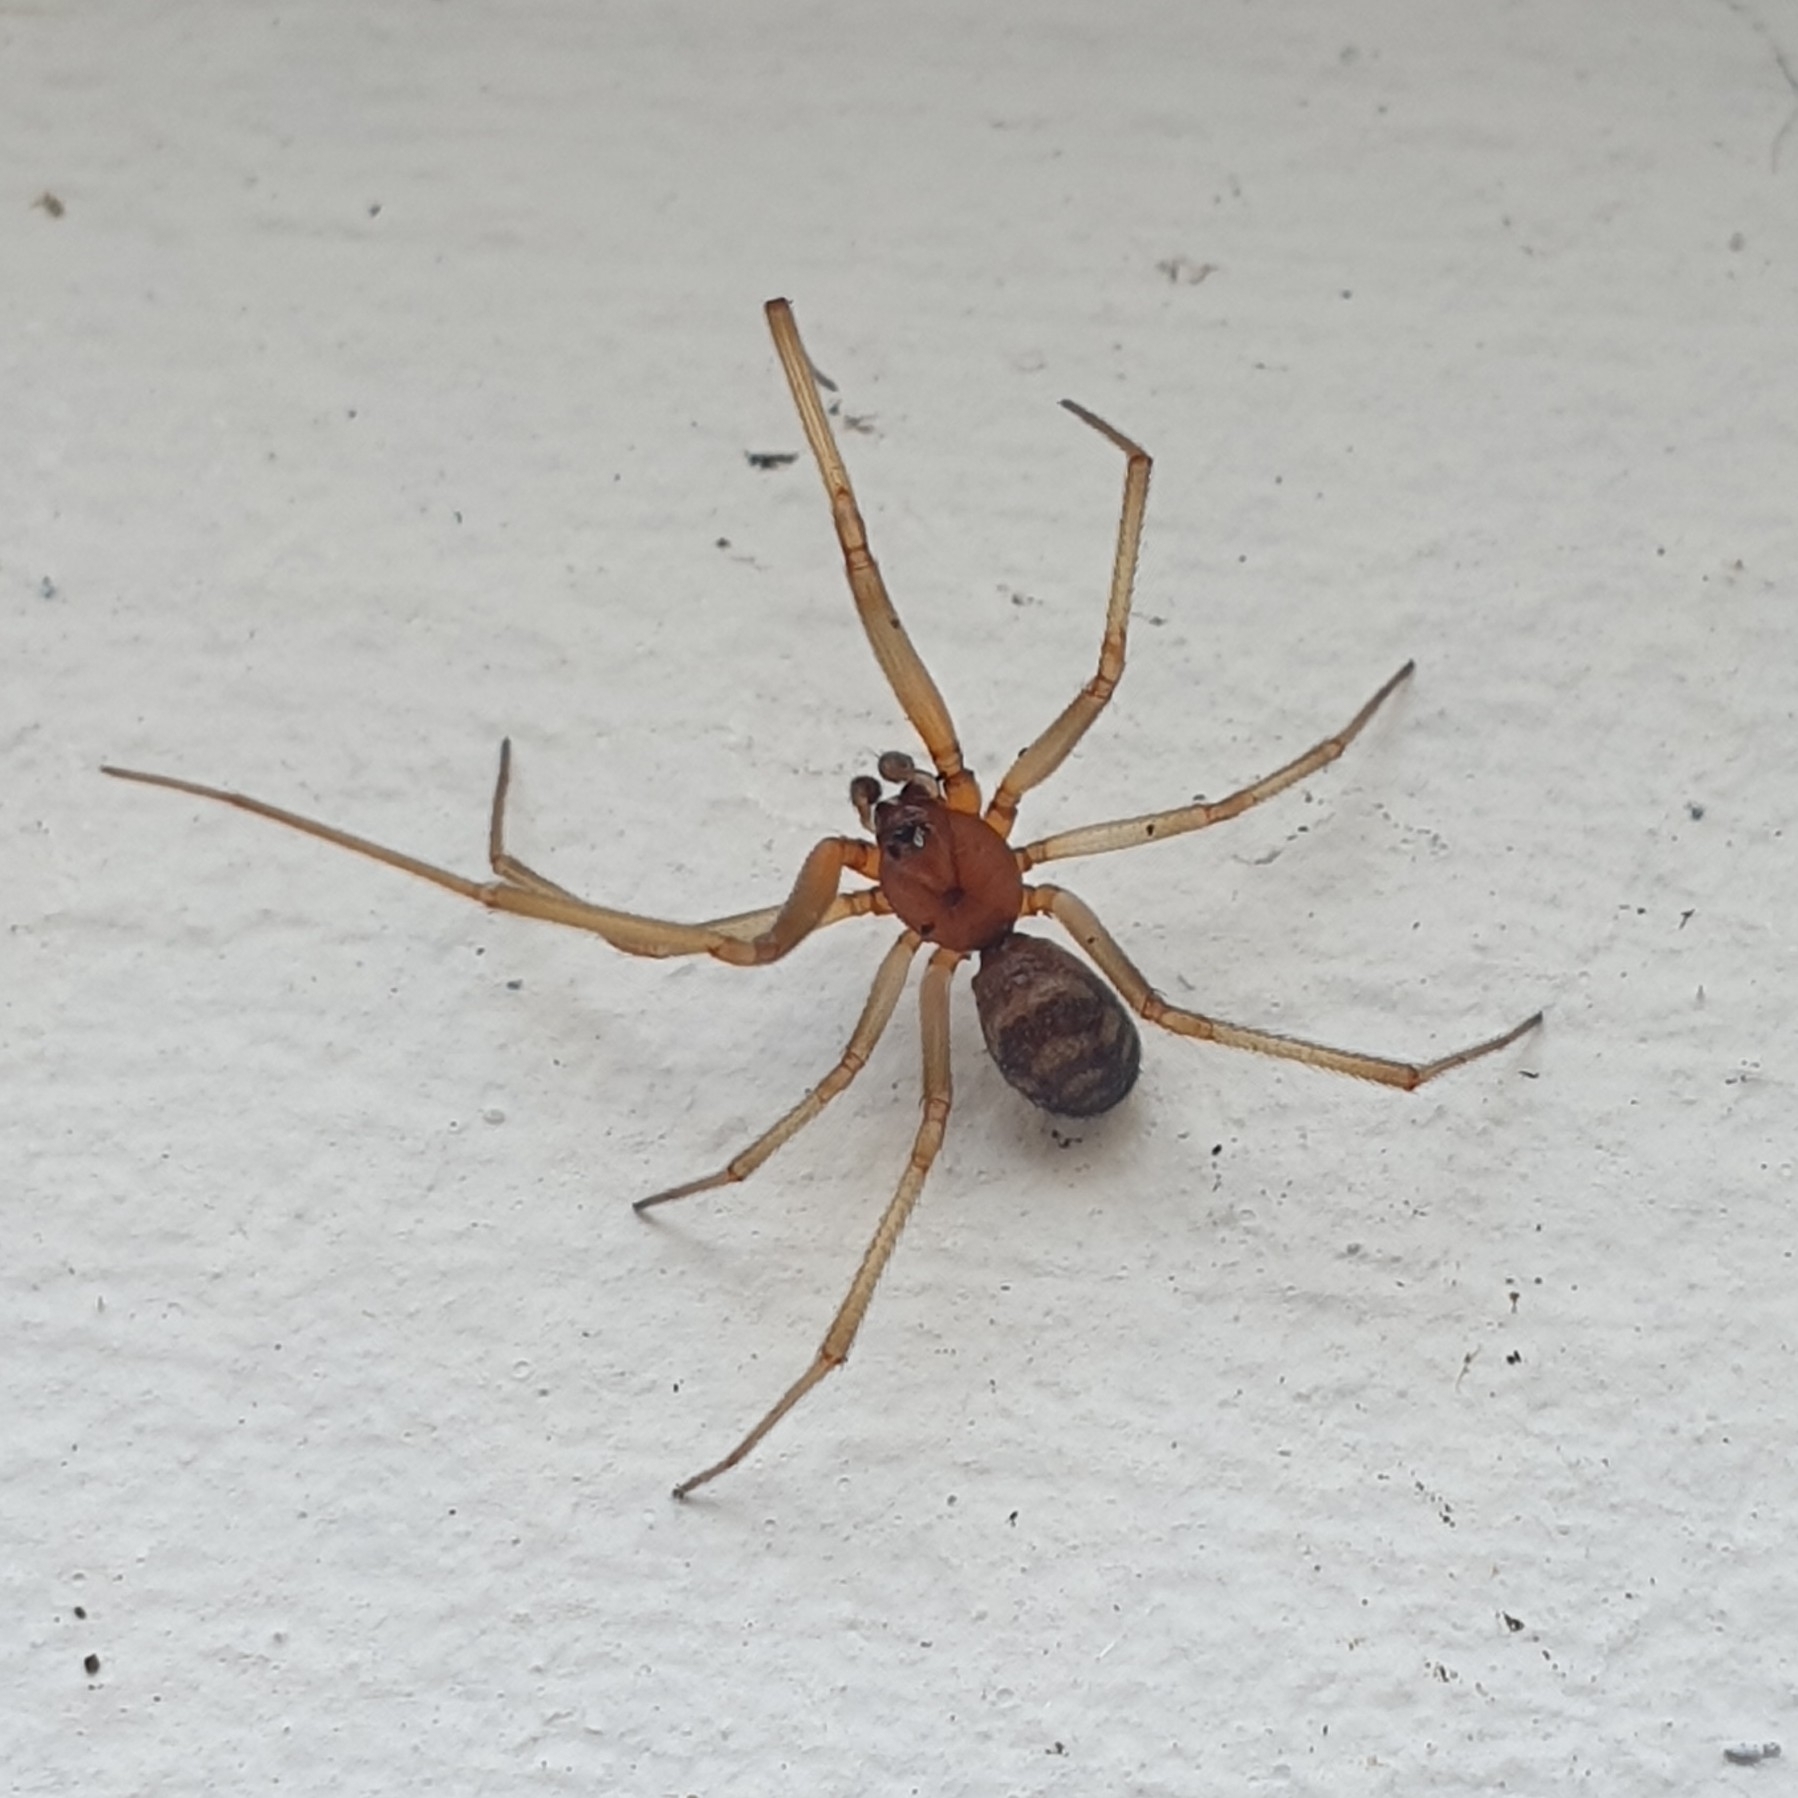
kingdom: Animalia
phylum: Arthropoda
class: Arachnida
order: Araneae
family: Theridiidae
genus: Steatoda
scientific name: Steatoda grossa
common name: False black widow
